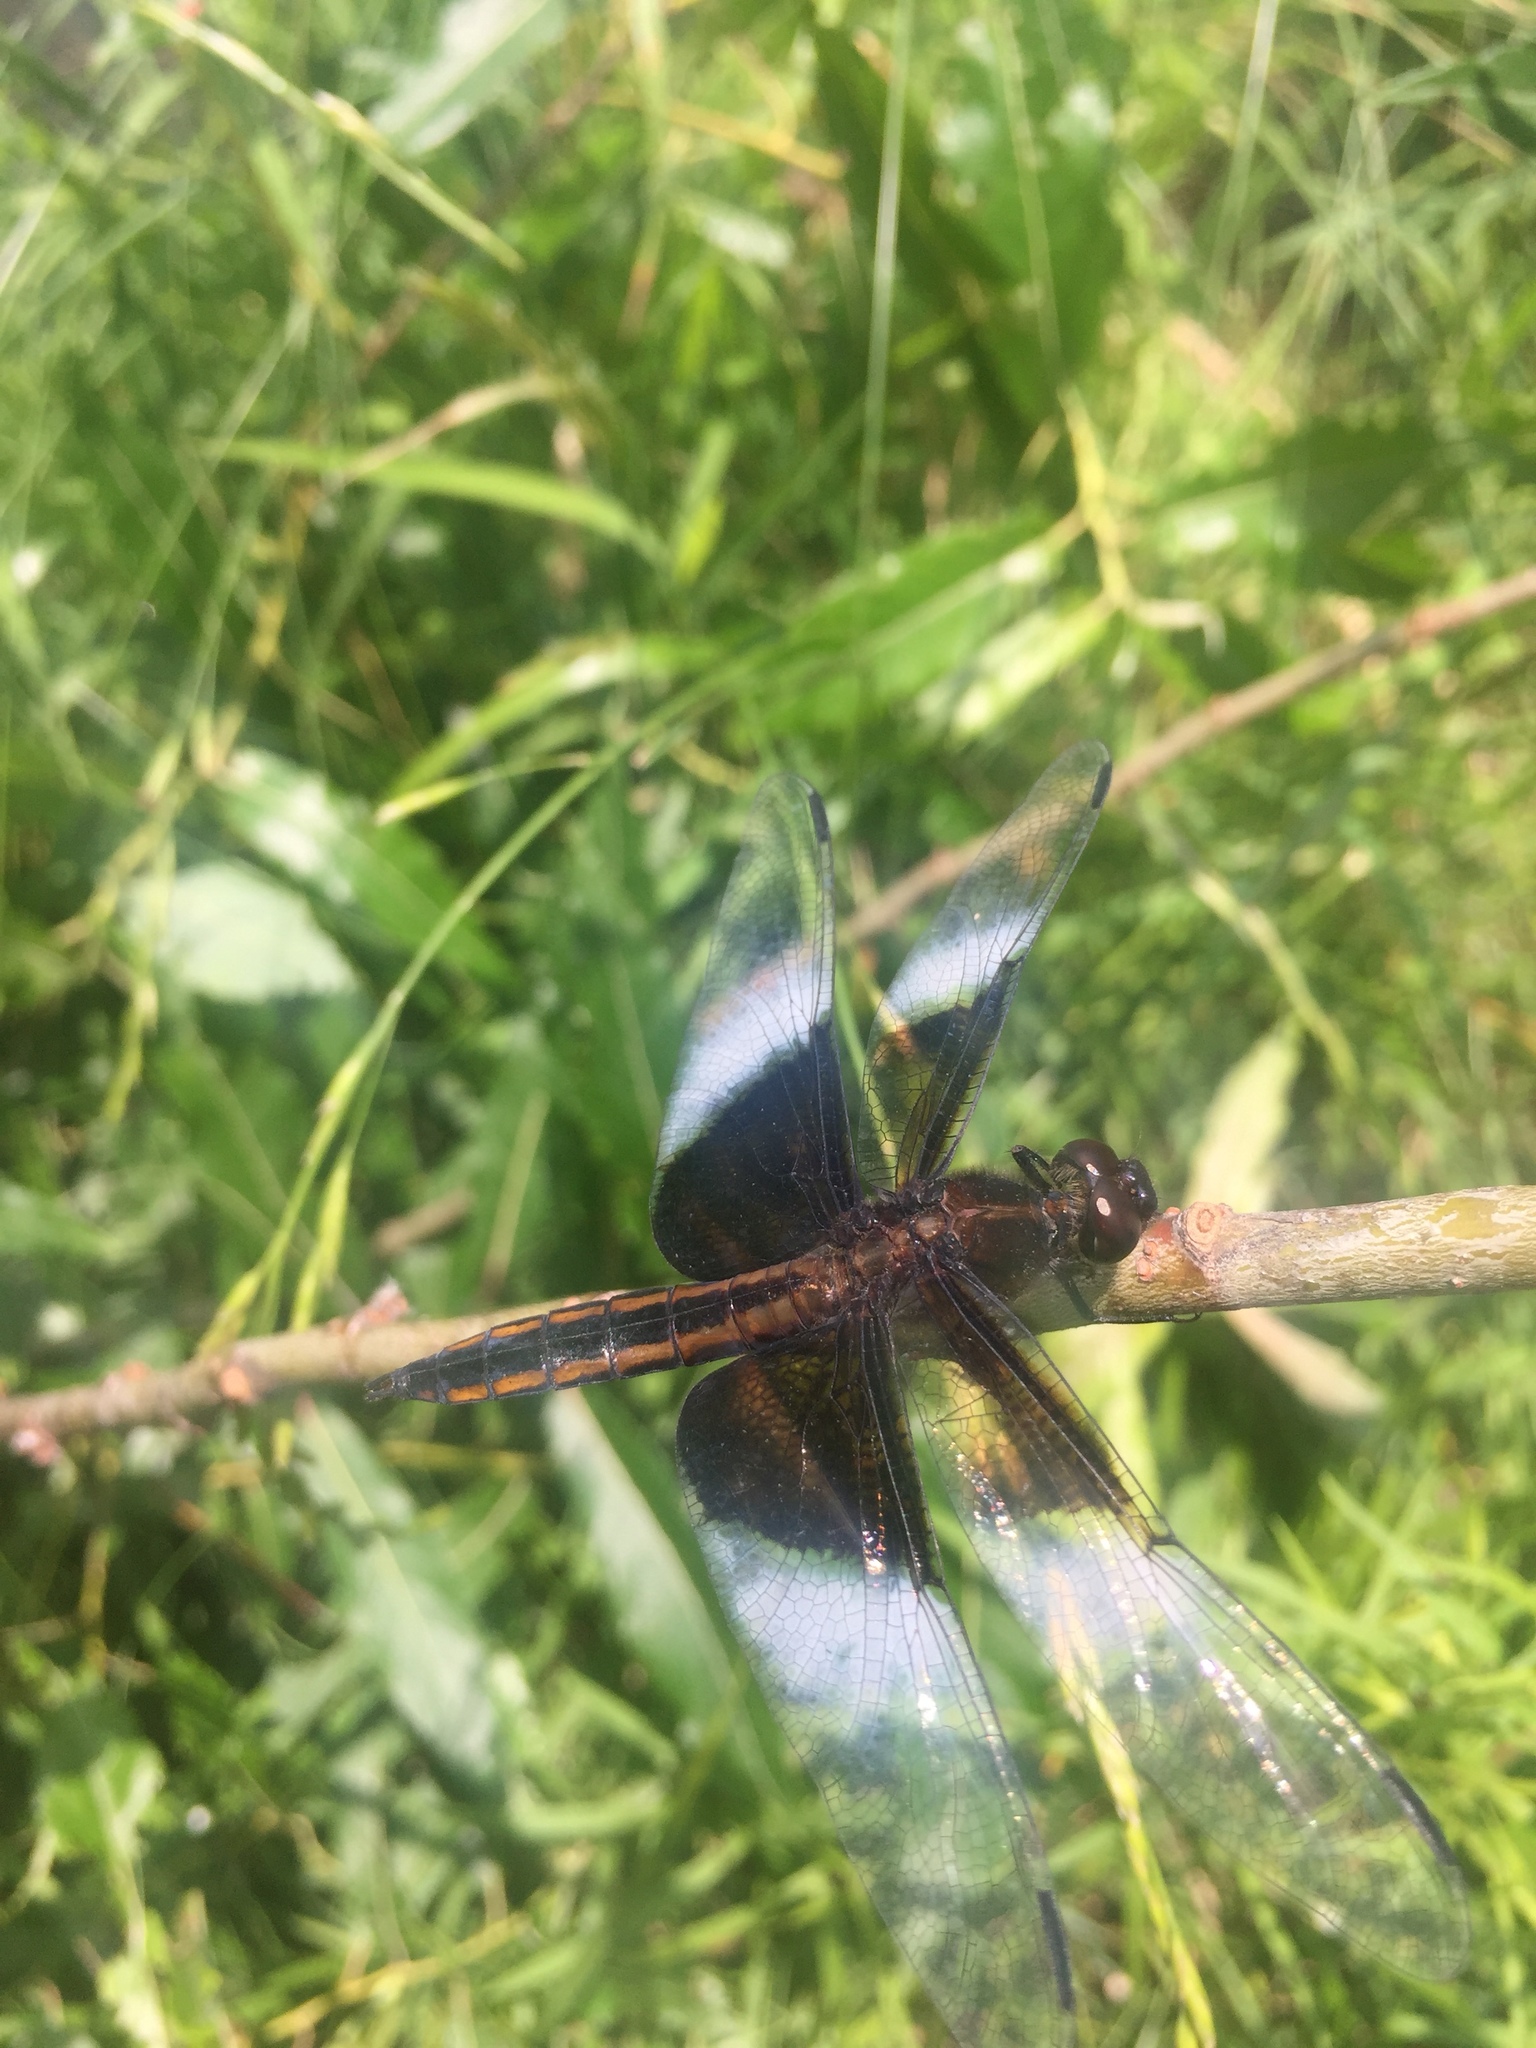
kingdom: Animalia
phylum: Arthropoda
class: Insecta
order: Odonata
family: Libellulidae
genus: Libellula
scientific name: Libellula luctuosa
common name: Widow skimmer
